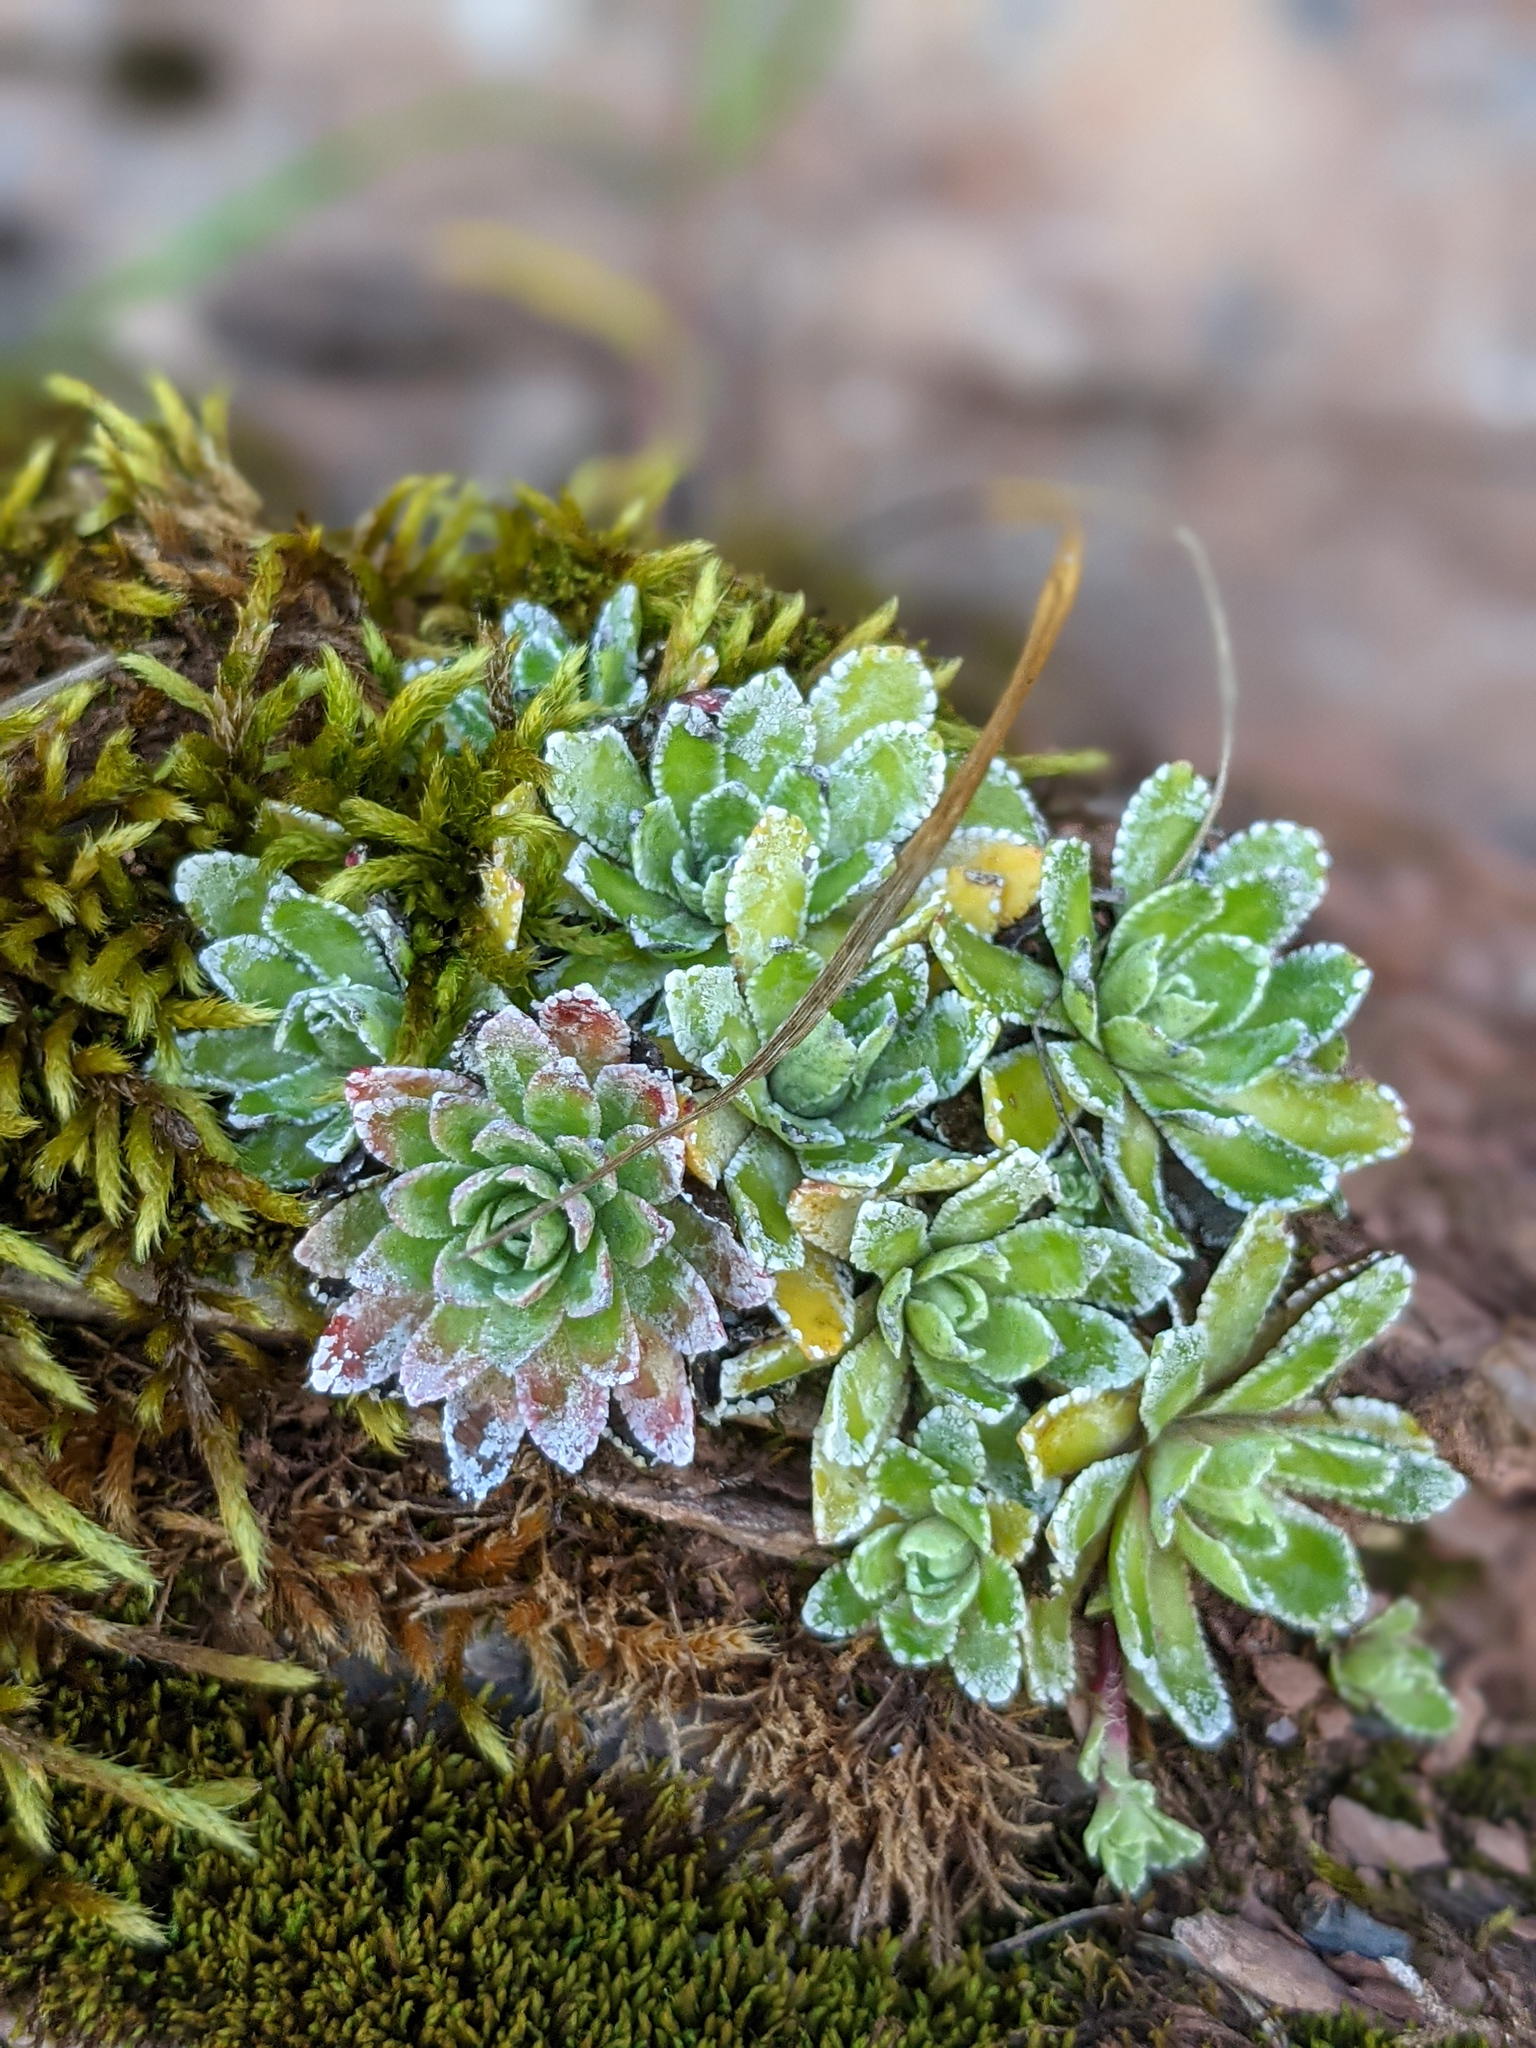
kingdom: Plantae
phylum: Tracheophyta
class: Magnoliopsida
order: Saxifragales
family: Saxifragaceae
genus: Saxifraga
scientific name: Saxifraga paniculata
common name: Livelong saxifrage
